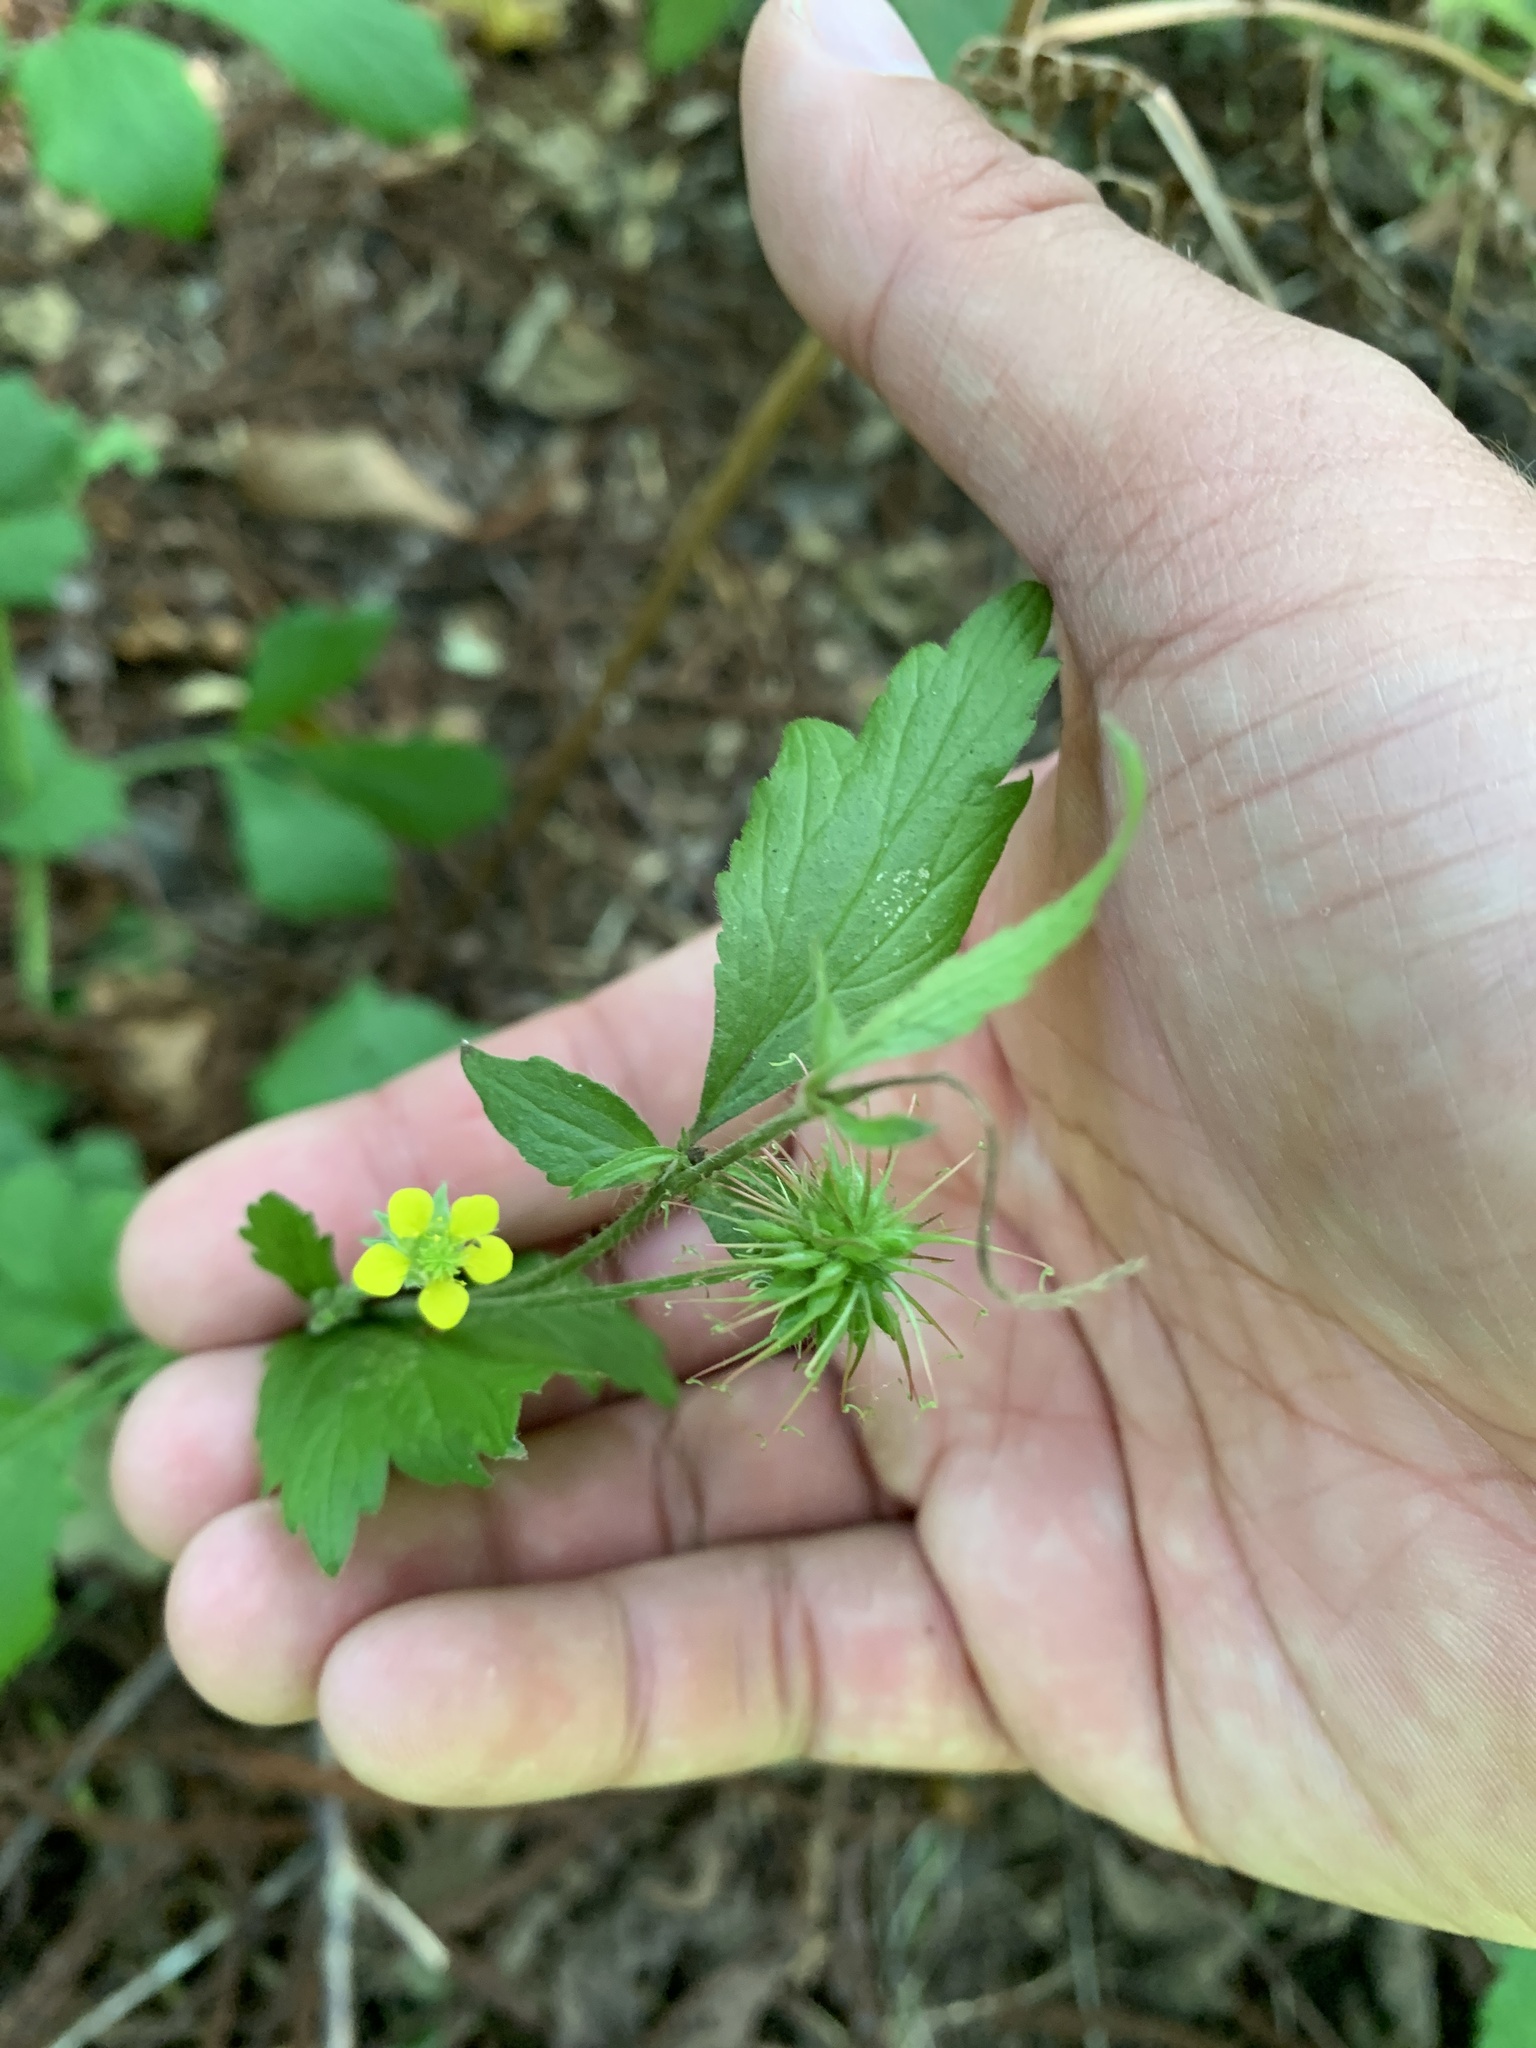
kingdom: Plantae
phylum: Tracheophyta
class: Magnoliopsida
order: Rosales
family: Rosaceae
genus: Geum
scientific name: Geum urbanum
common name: Wood avens
